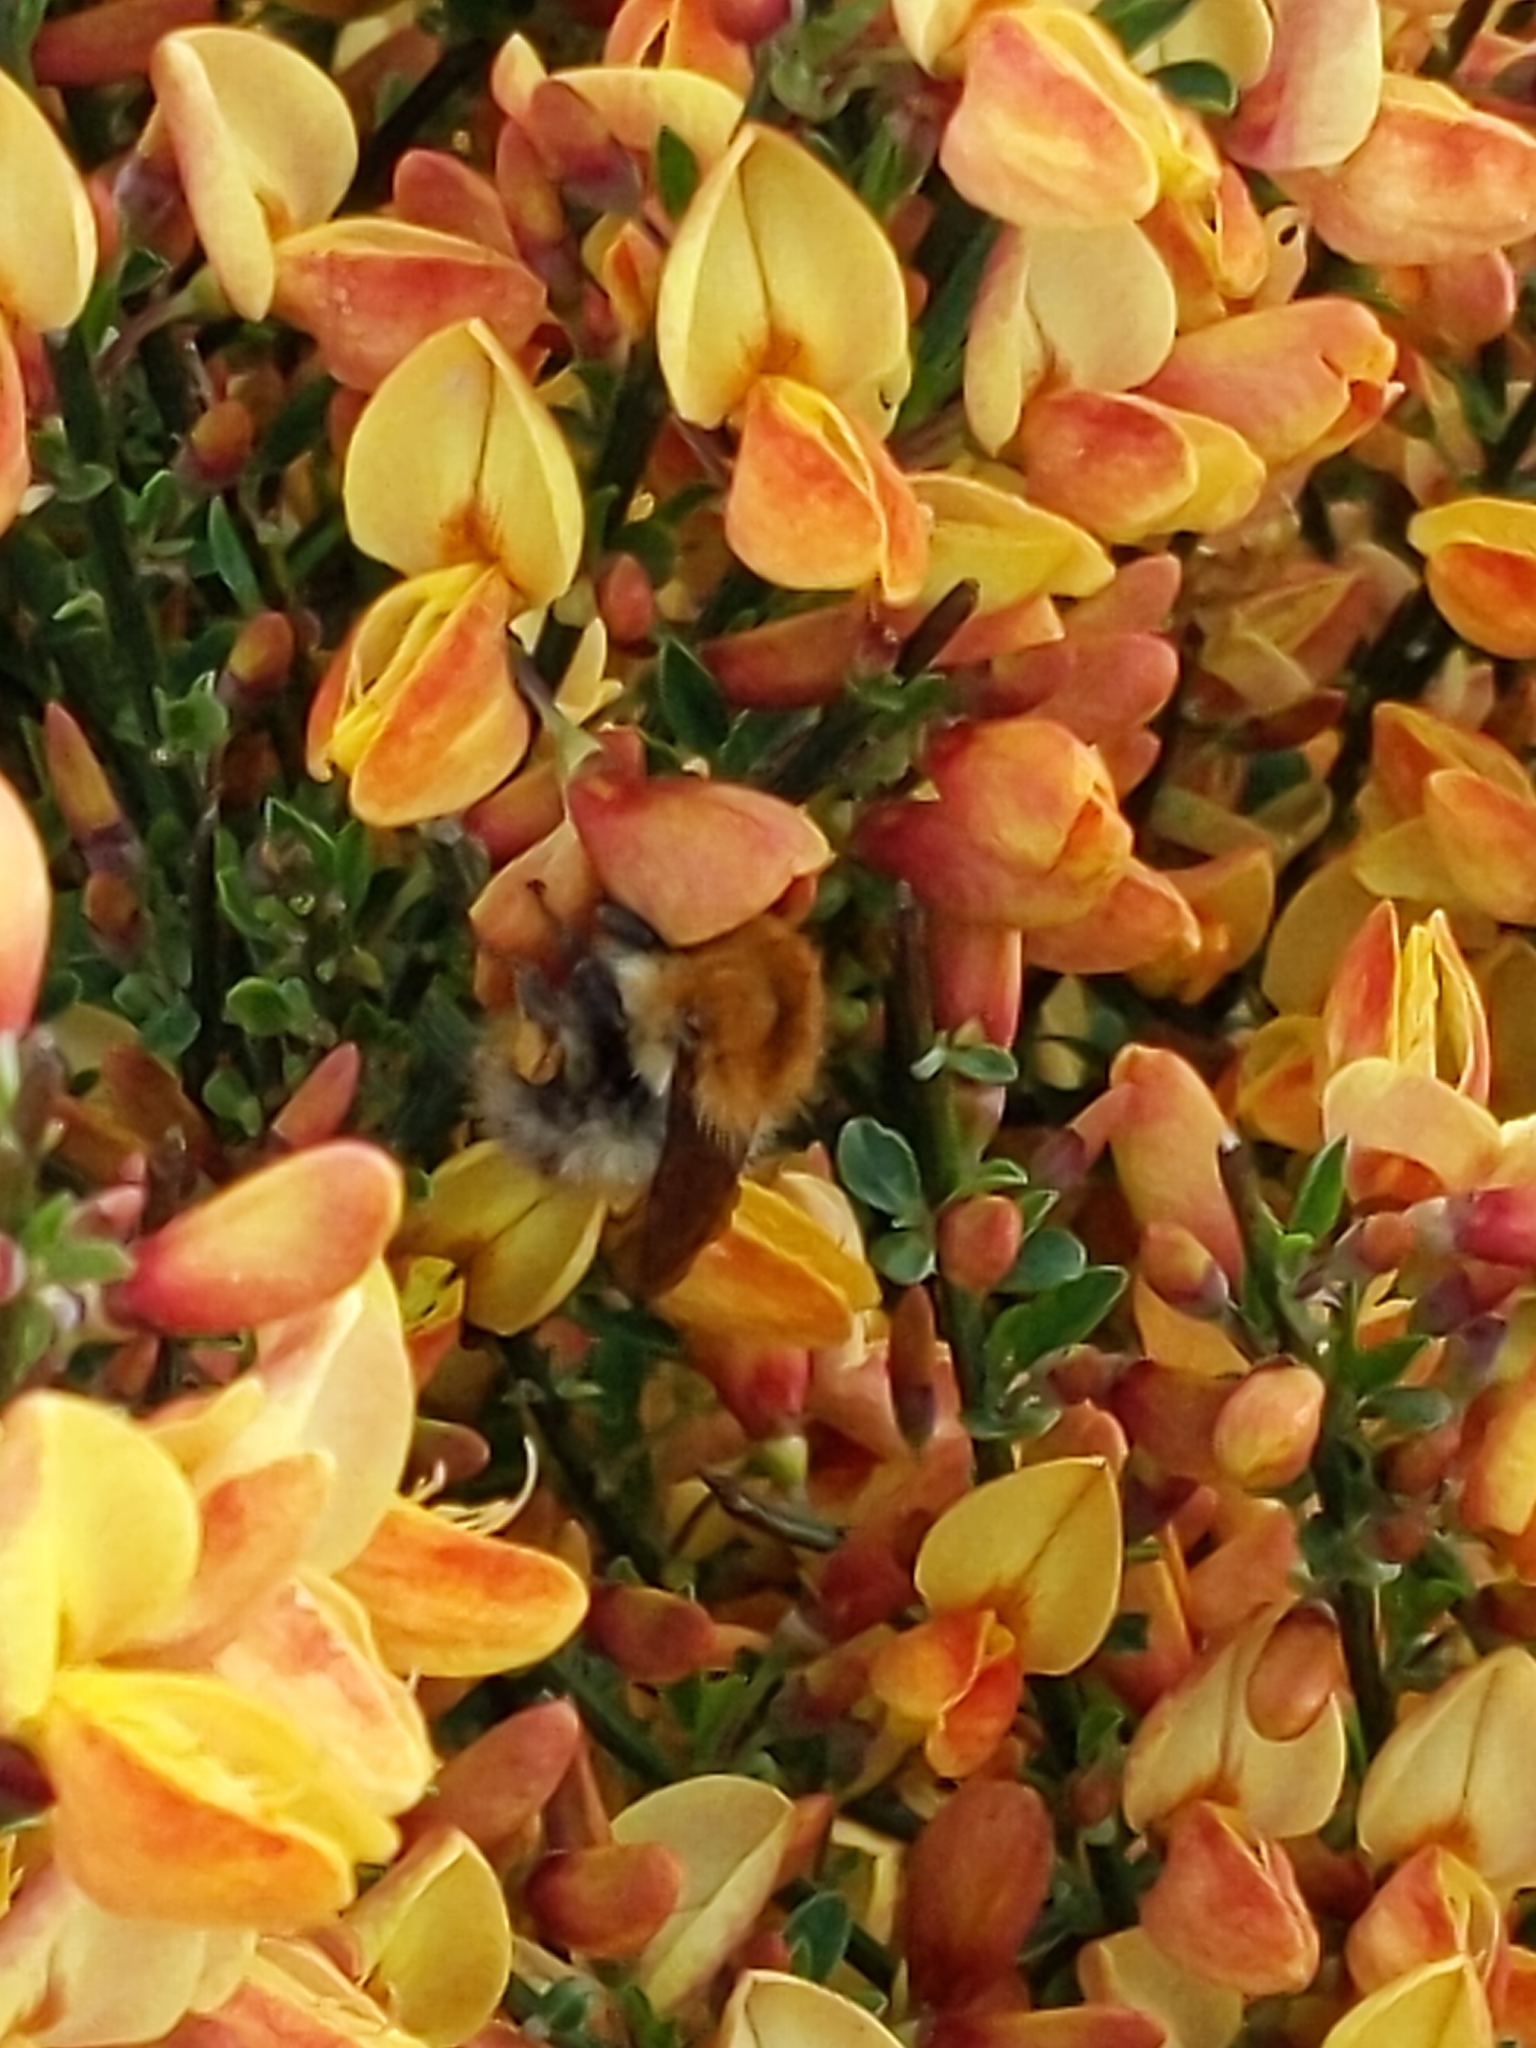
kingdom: Animalia
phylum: Arthropoda
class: Insecta
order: Hymenoptera
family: Apidae
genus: Bombus
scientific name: Bombus pascuorum
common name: Common carder bee
